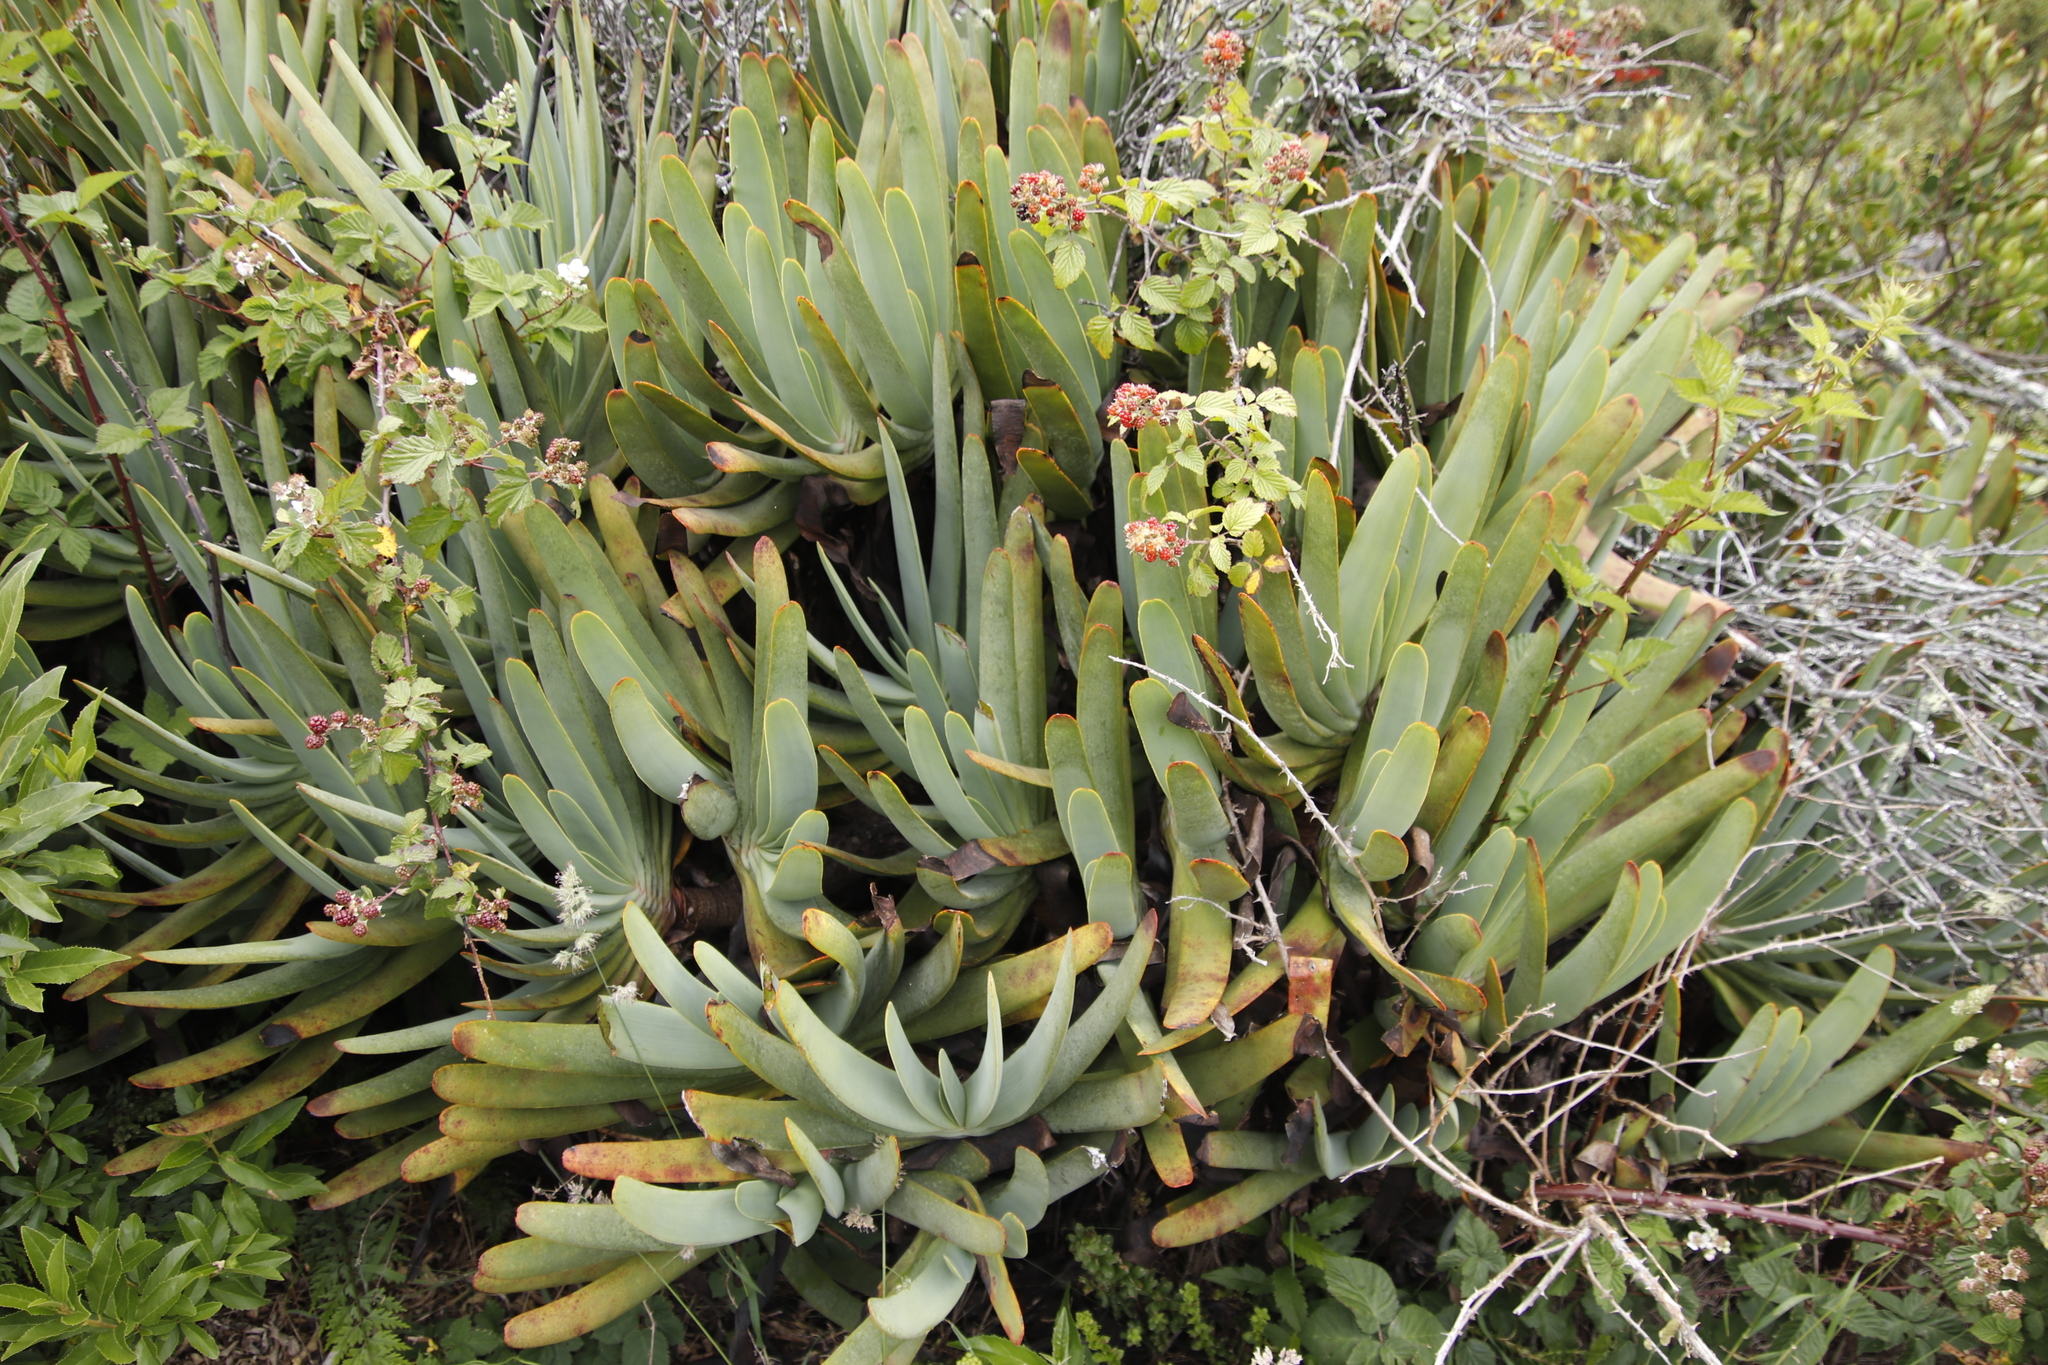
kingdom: Plantae
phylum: Tracheophyta
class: Liliopsida
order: Asparagales
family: Asphodelaceae
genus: Kumara
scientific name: Kumara plicatilis
